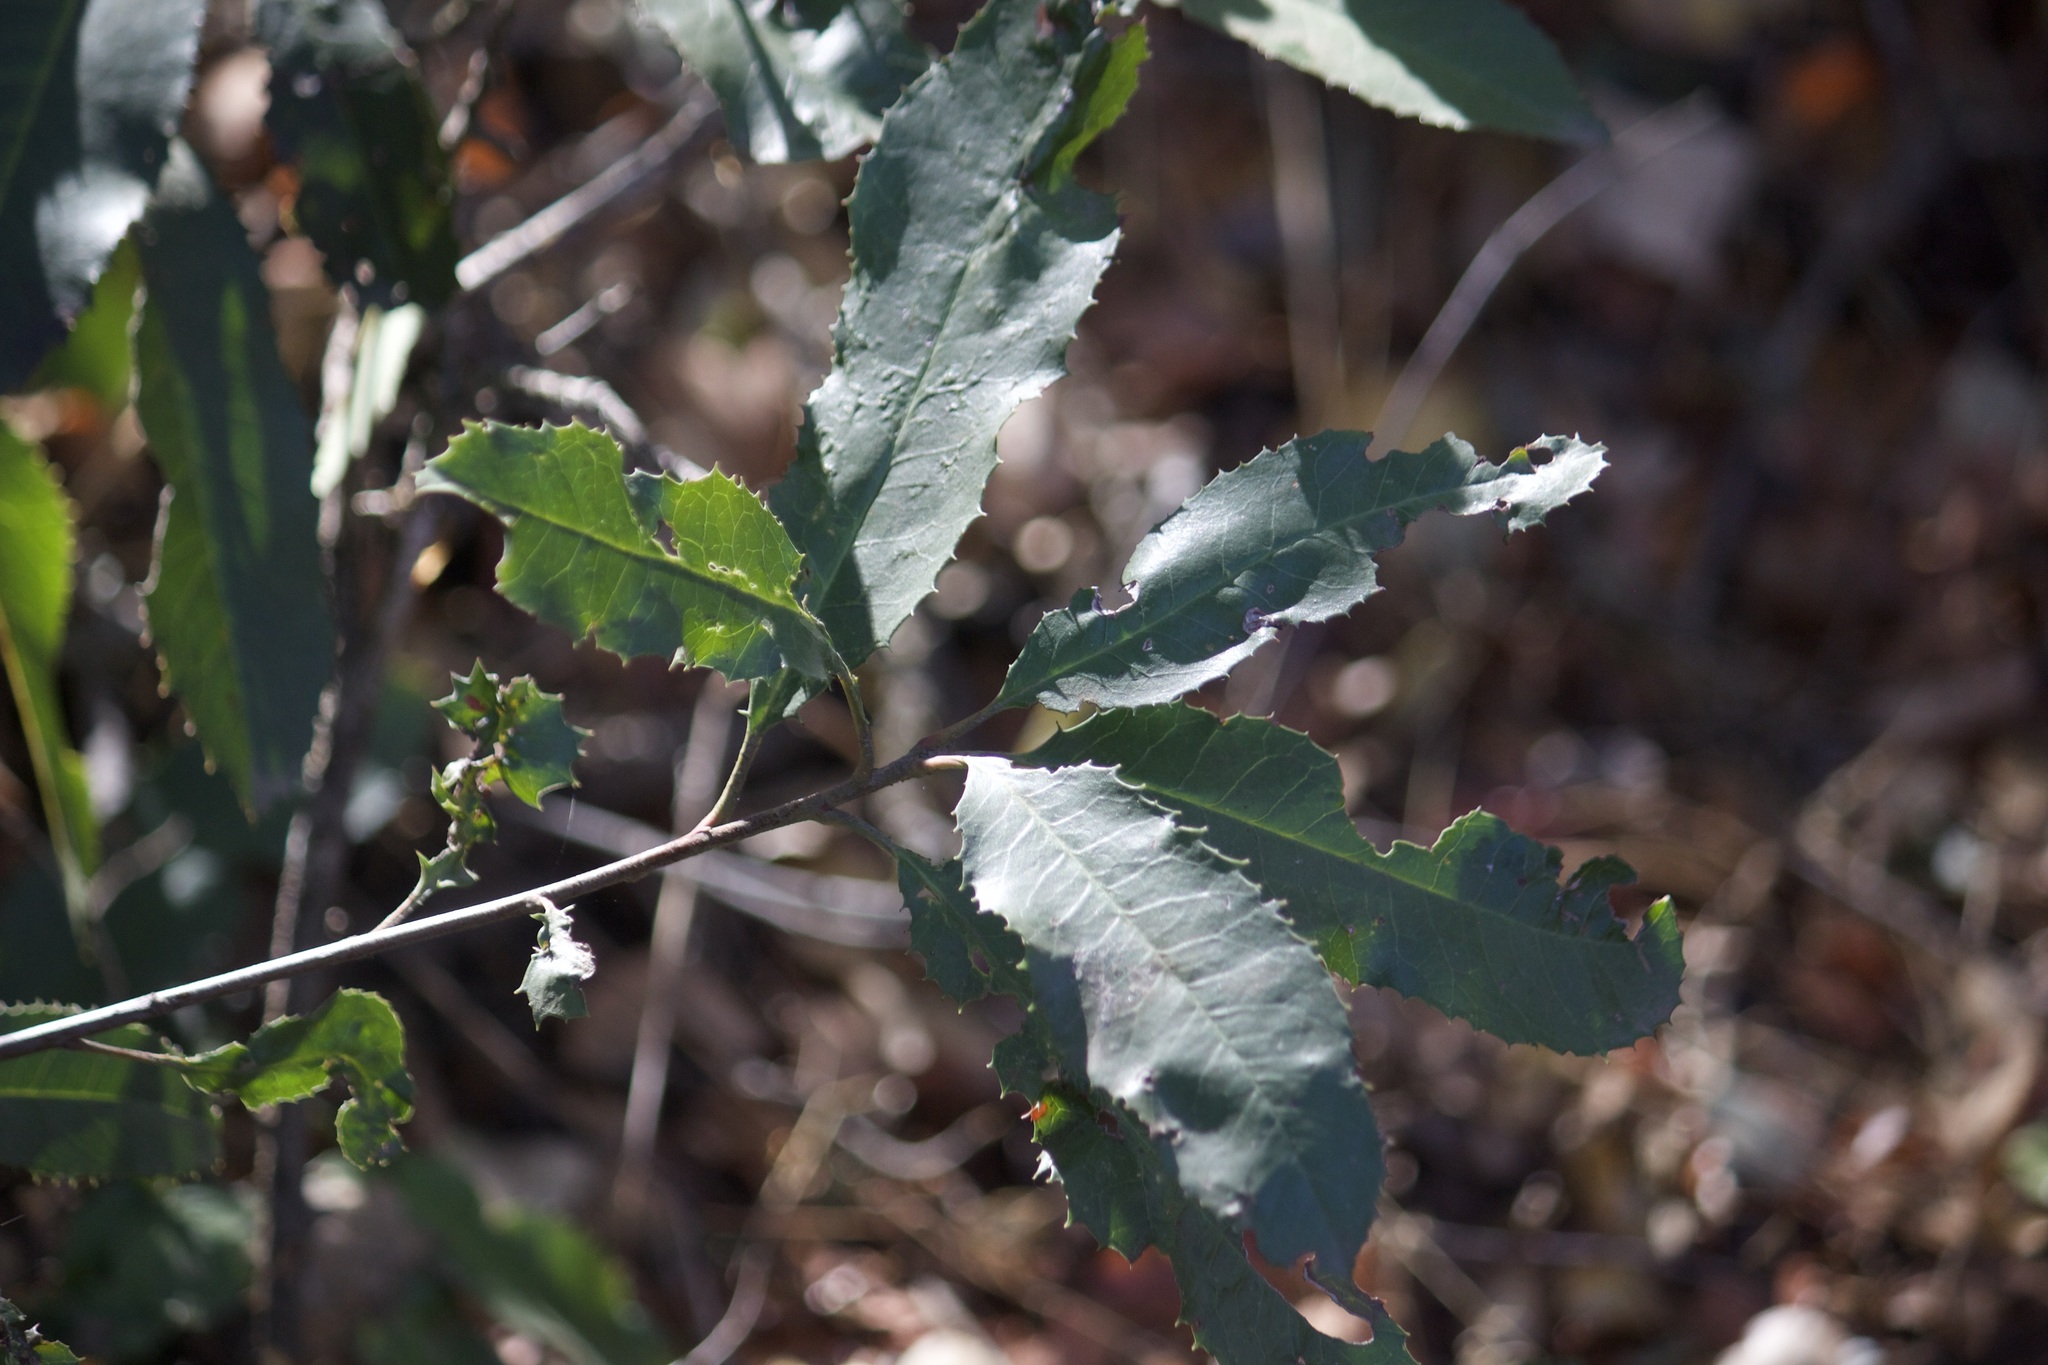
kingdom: Plantae
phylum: Tracheophyta
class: Magnoliopsida
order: Rosales
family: Rosaceae
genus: Heteromeles
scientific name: Heteromeles arbutifolia
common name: California-holly
